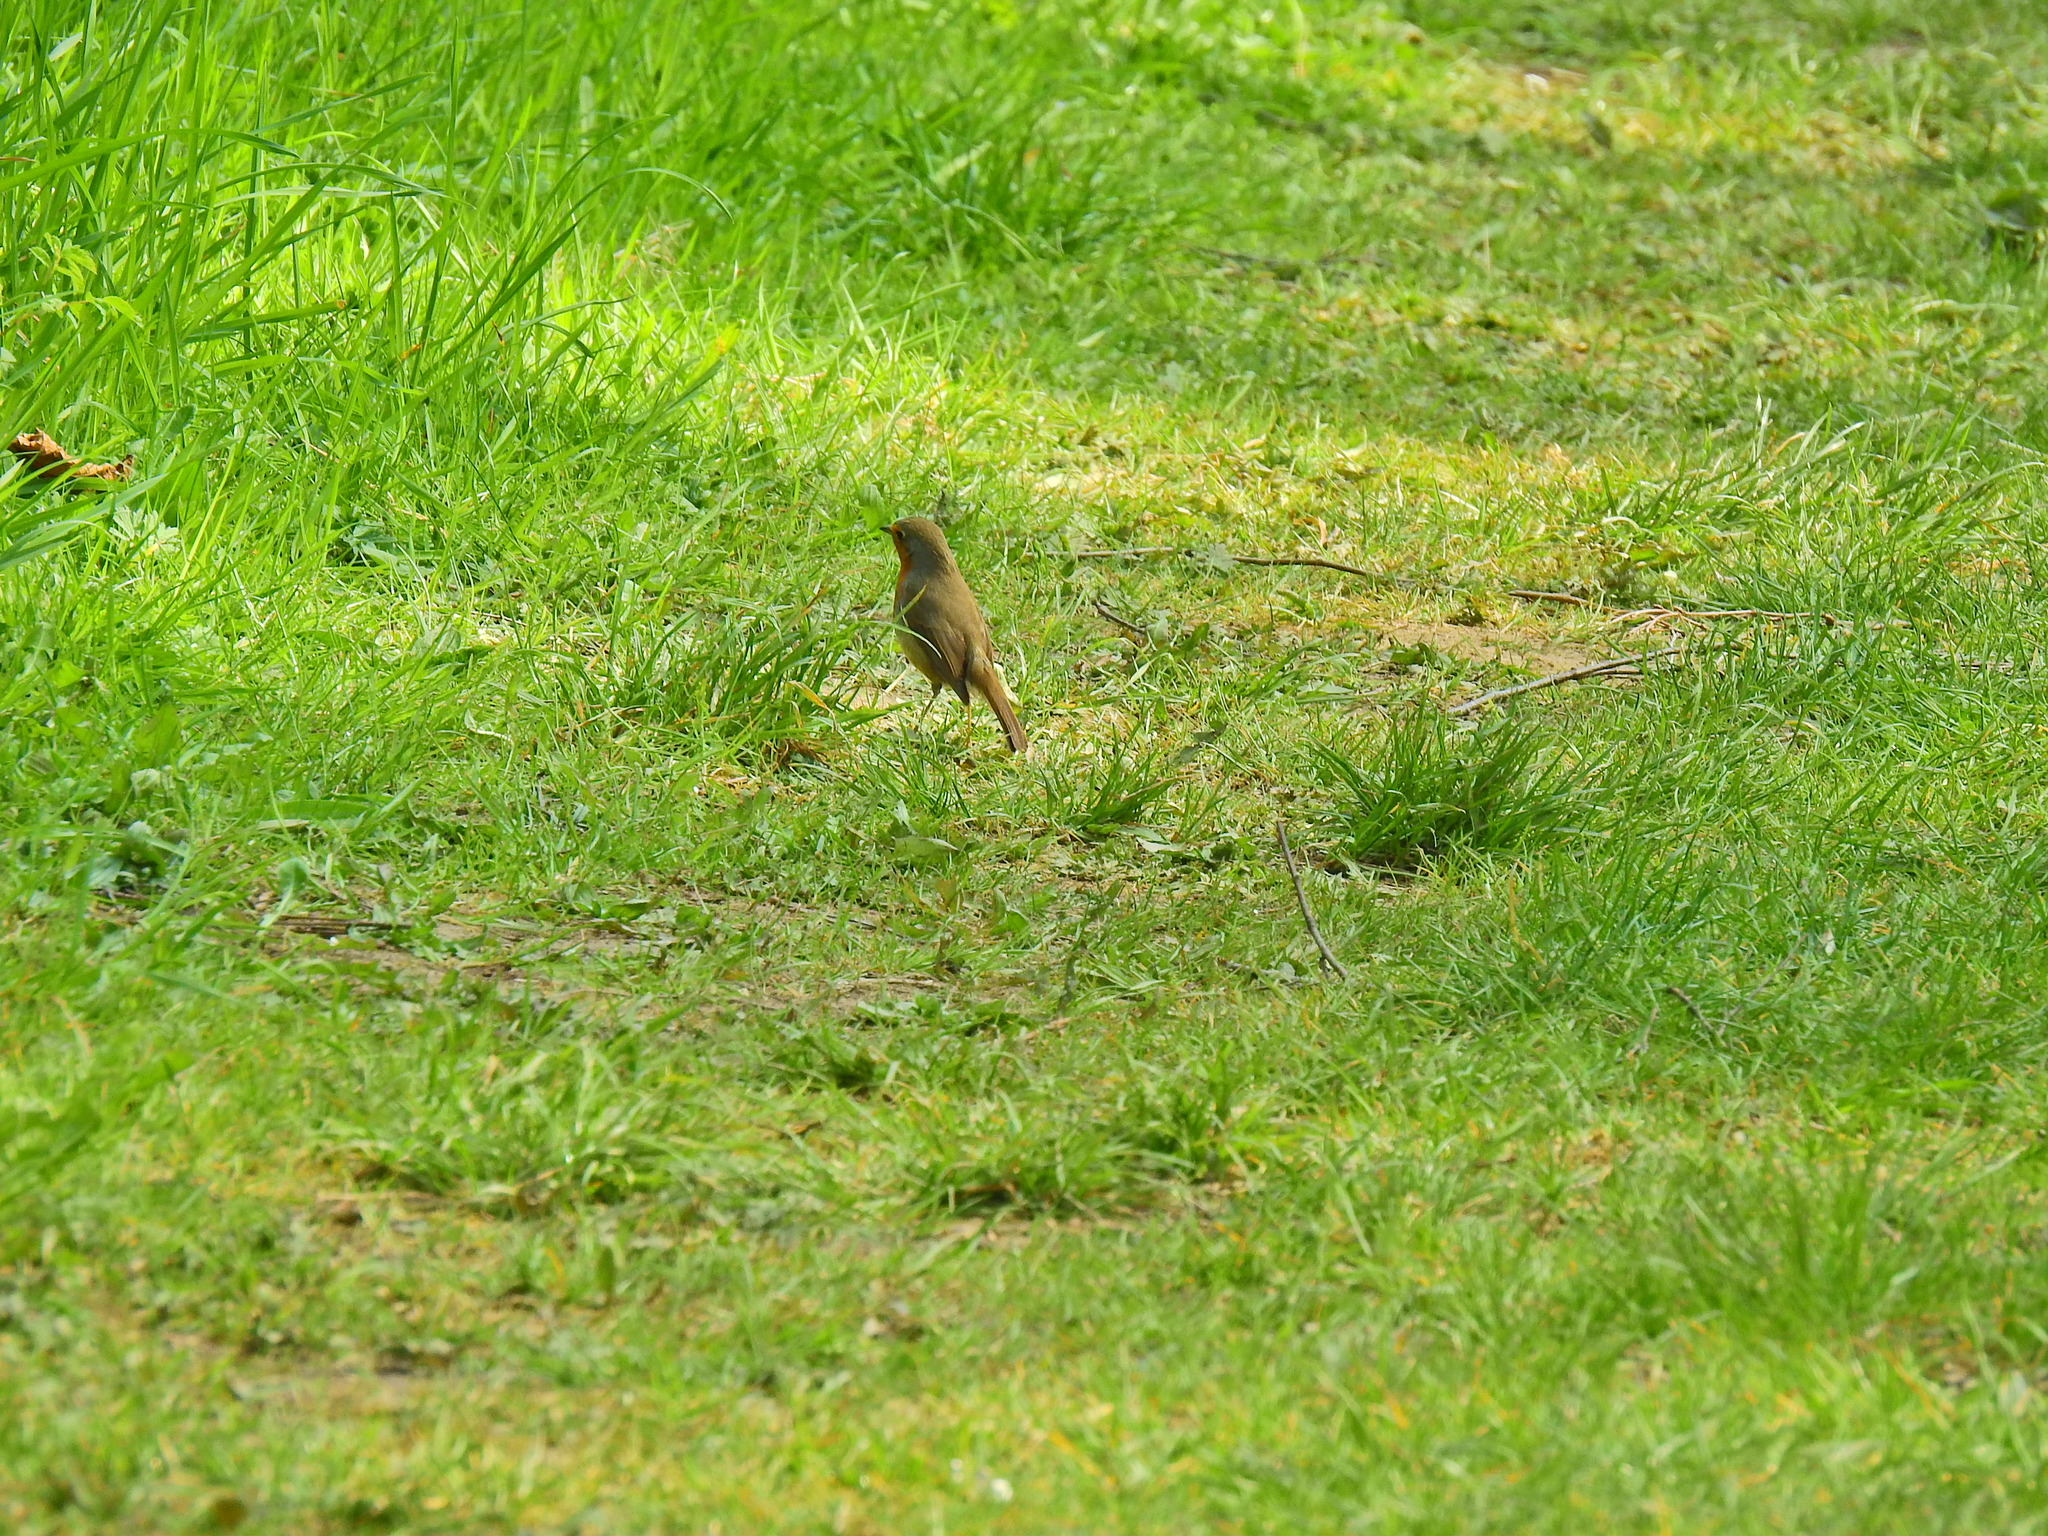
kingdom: Animalia
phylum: Chordata
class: Aves
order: Passeriformes
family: Muscicapidae
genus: Erithacus
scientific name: Erithacus rubecula
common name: European robin
